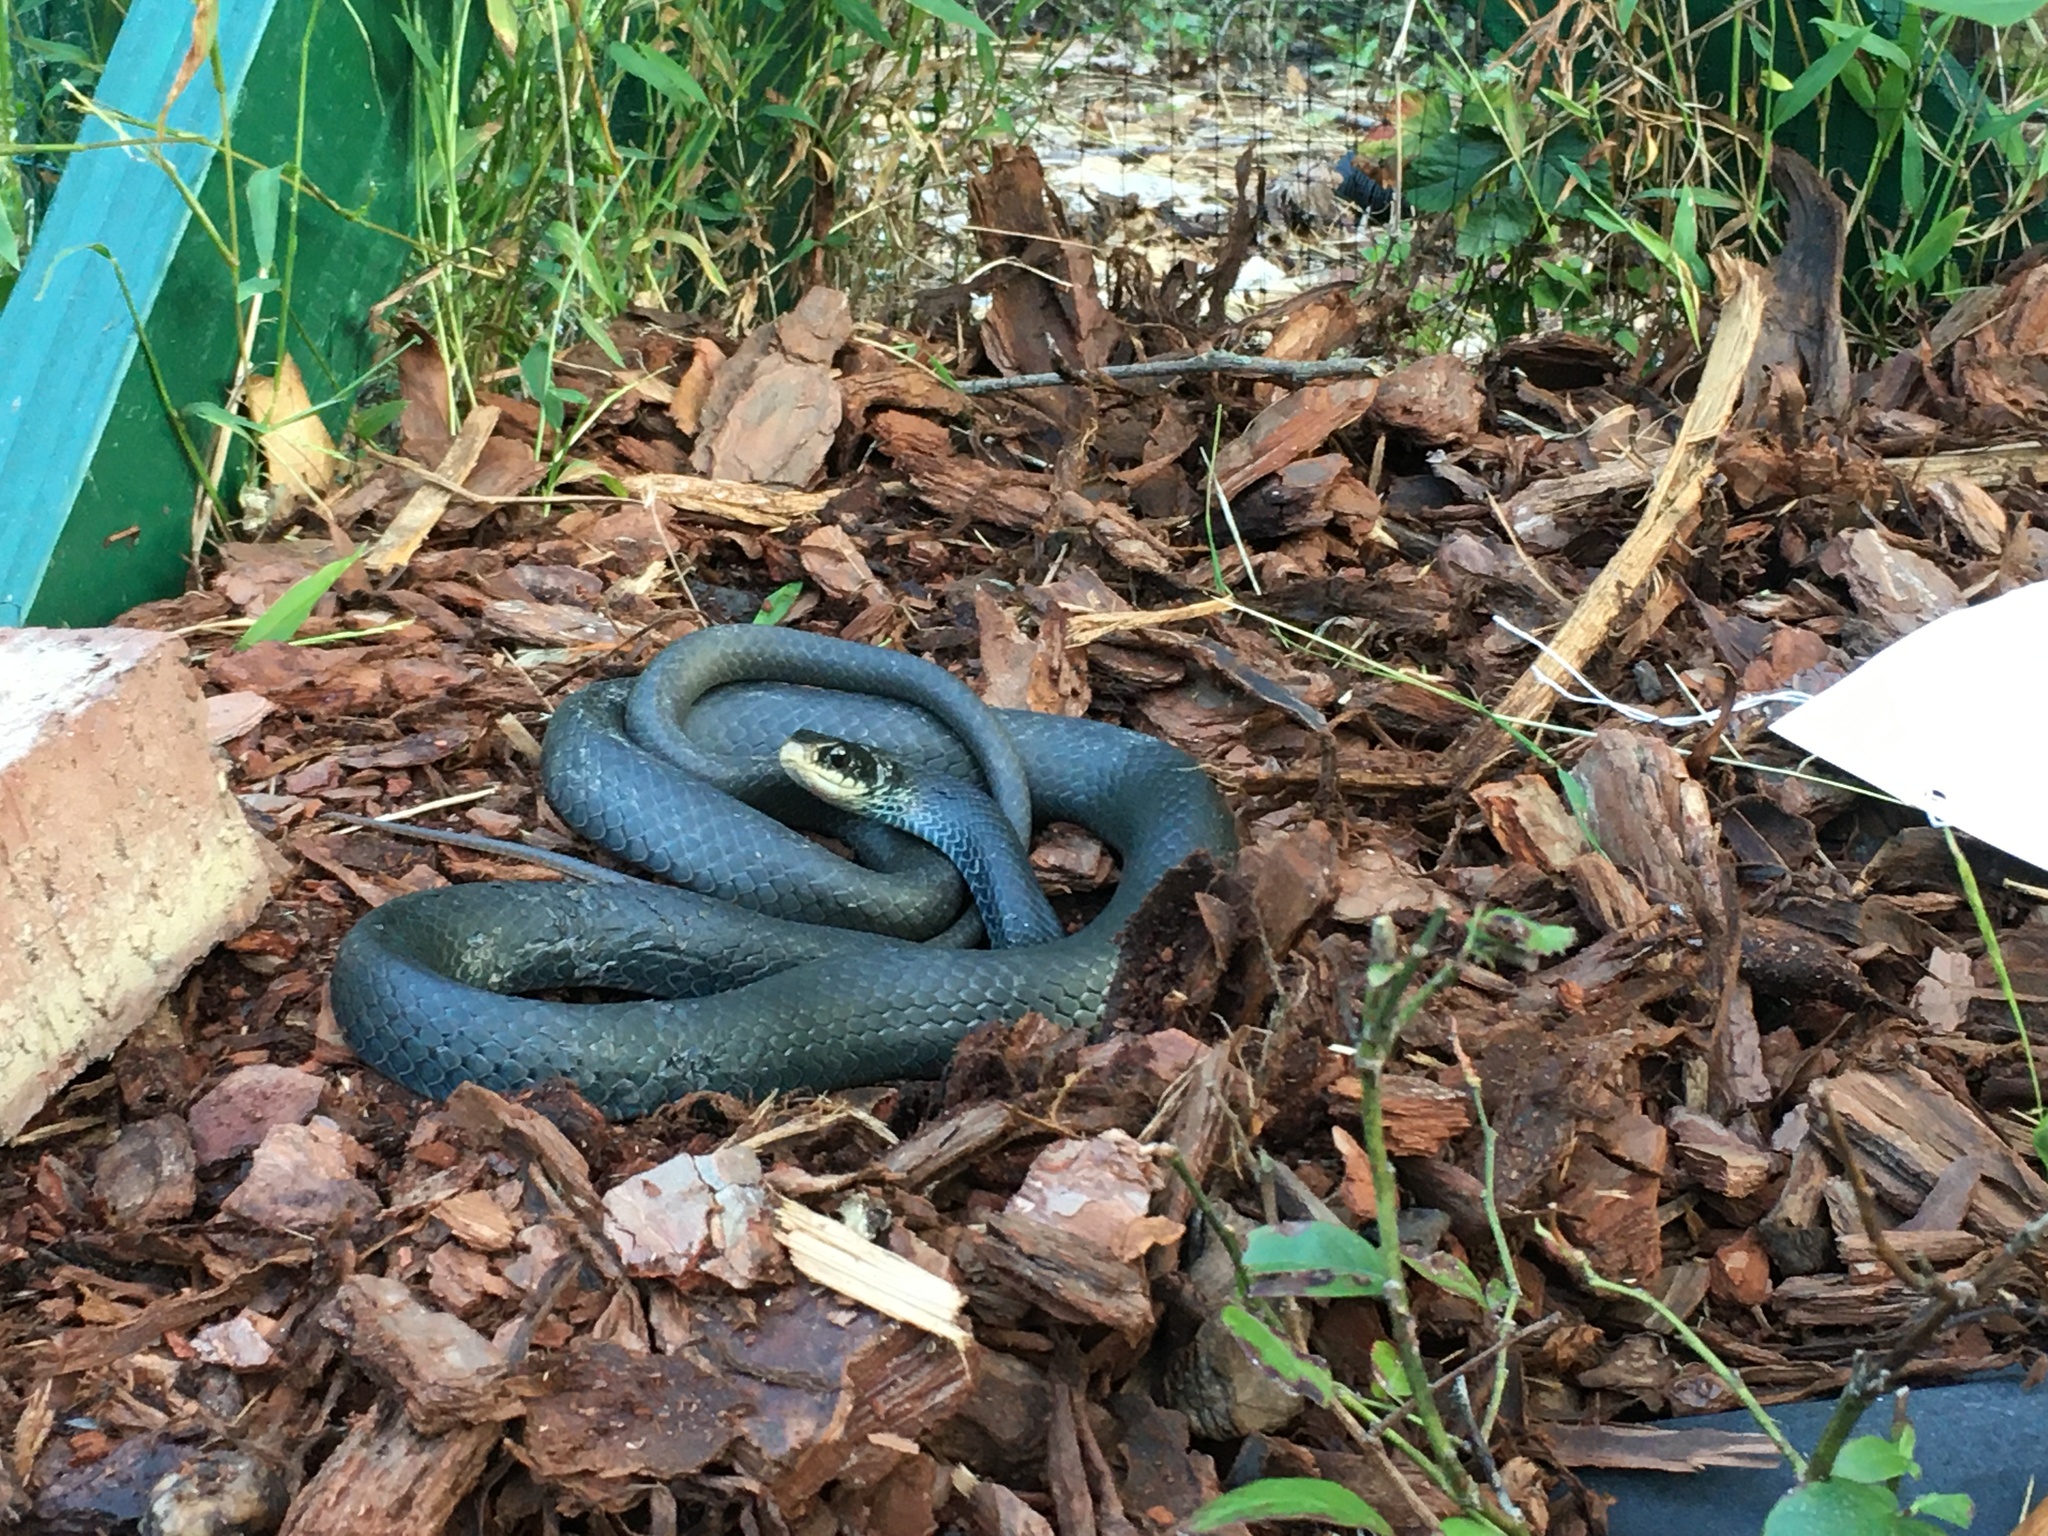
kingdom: Animalia
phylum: Chordata
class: Squamata
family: Colubridae
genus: Coluber
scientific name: Coluber constrictor
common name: Eastern racer
